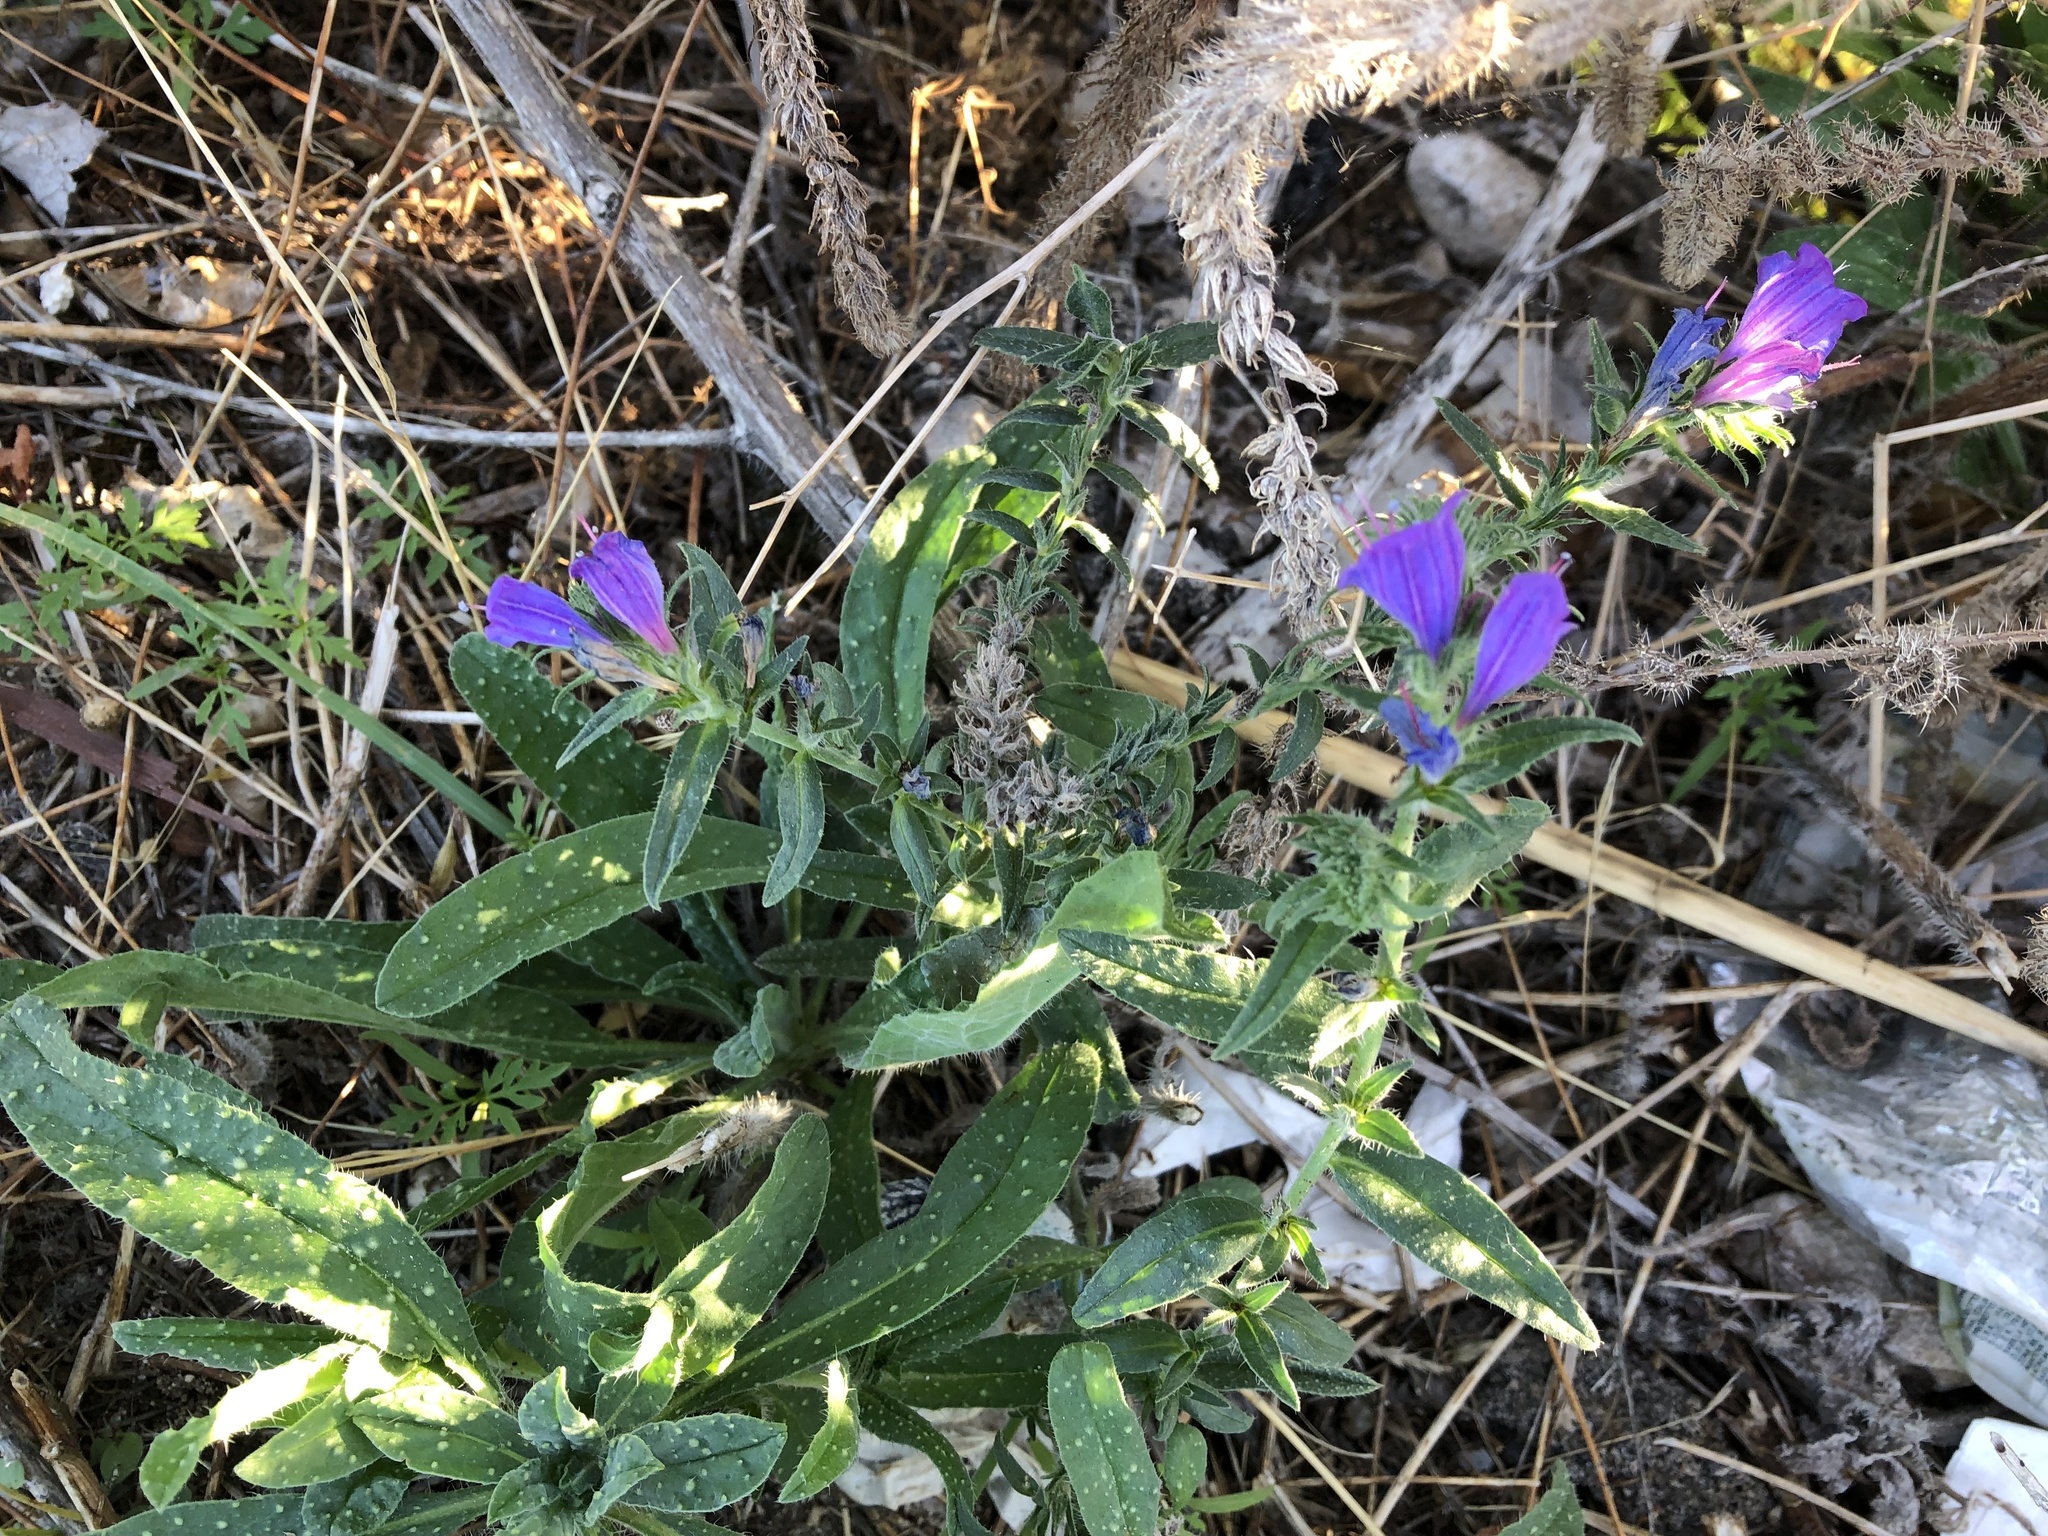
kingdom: Plantae
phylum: Tracheophyta
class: Magnoliopsida
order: Boraginales
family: Boraginaceae
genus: Echium
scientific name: Echium vulgare
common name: Common viper's bugloss
